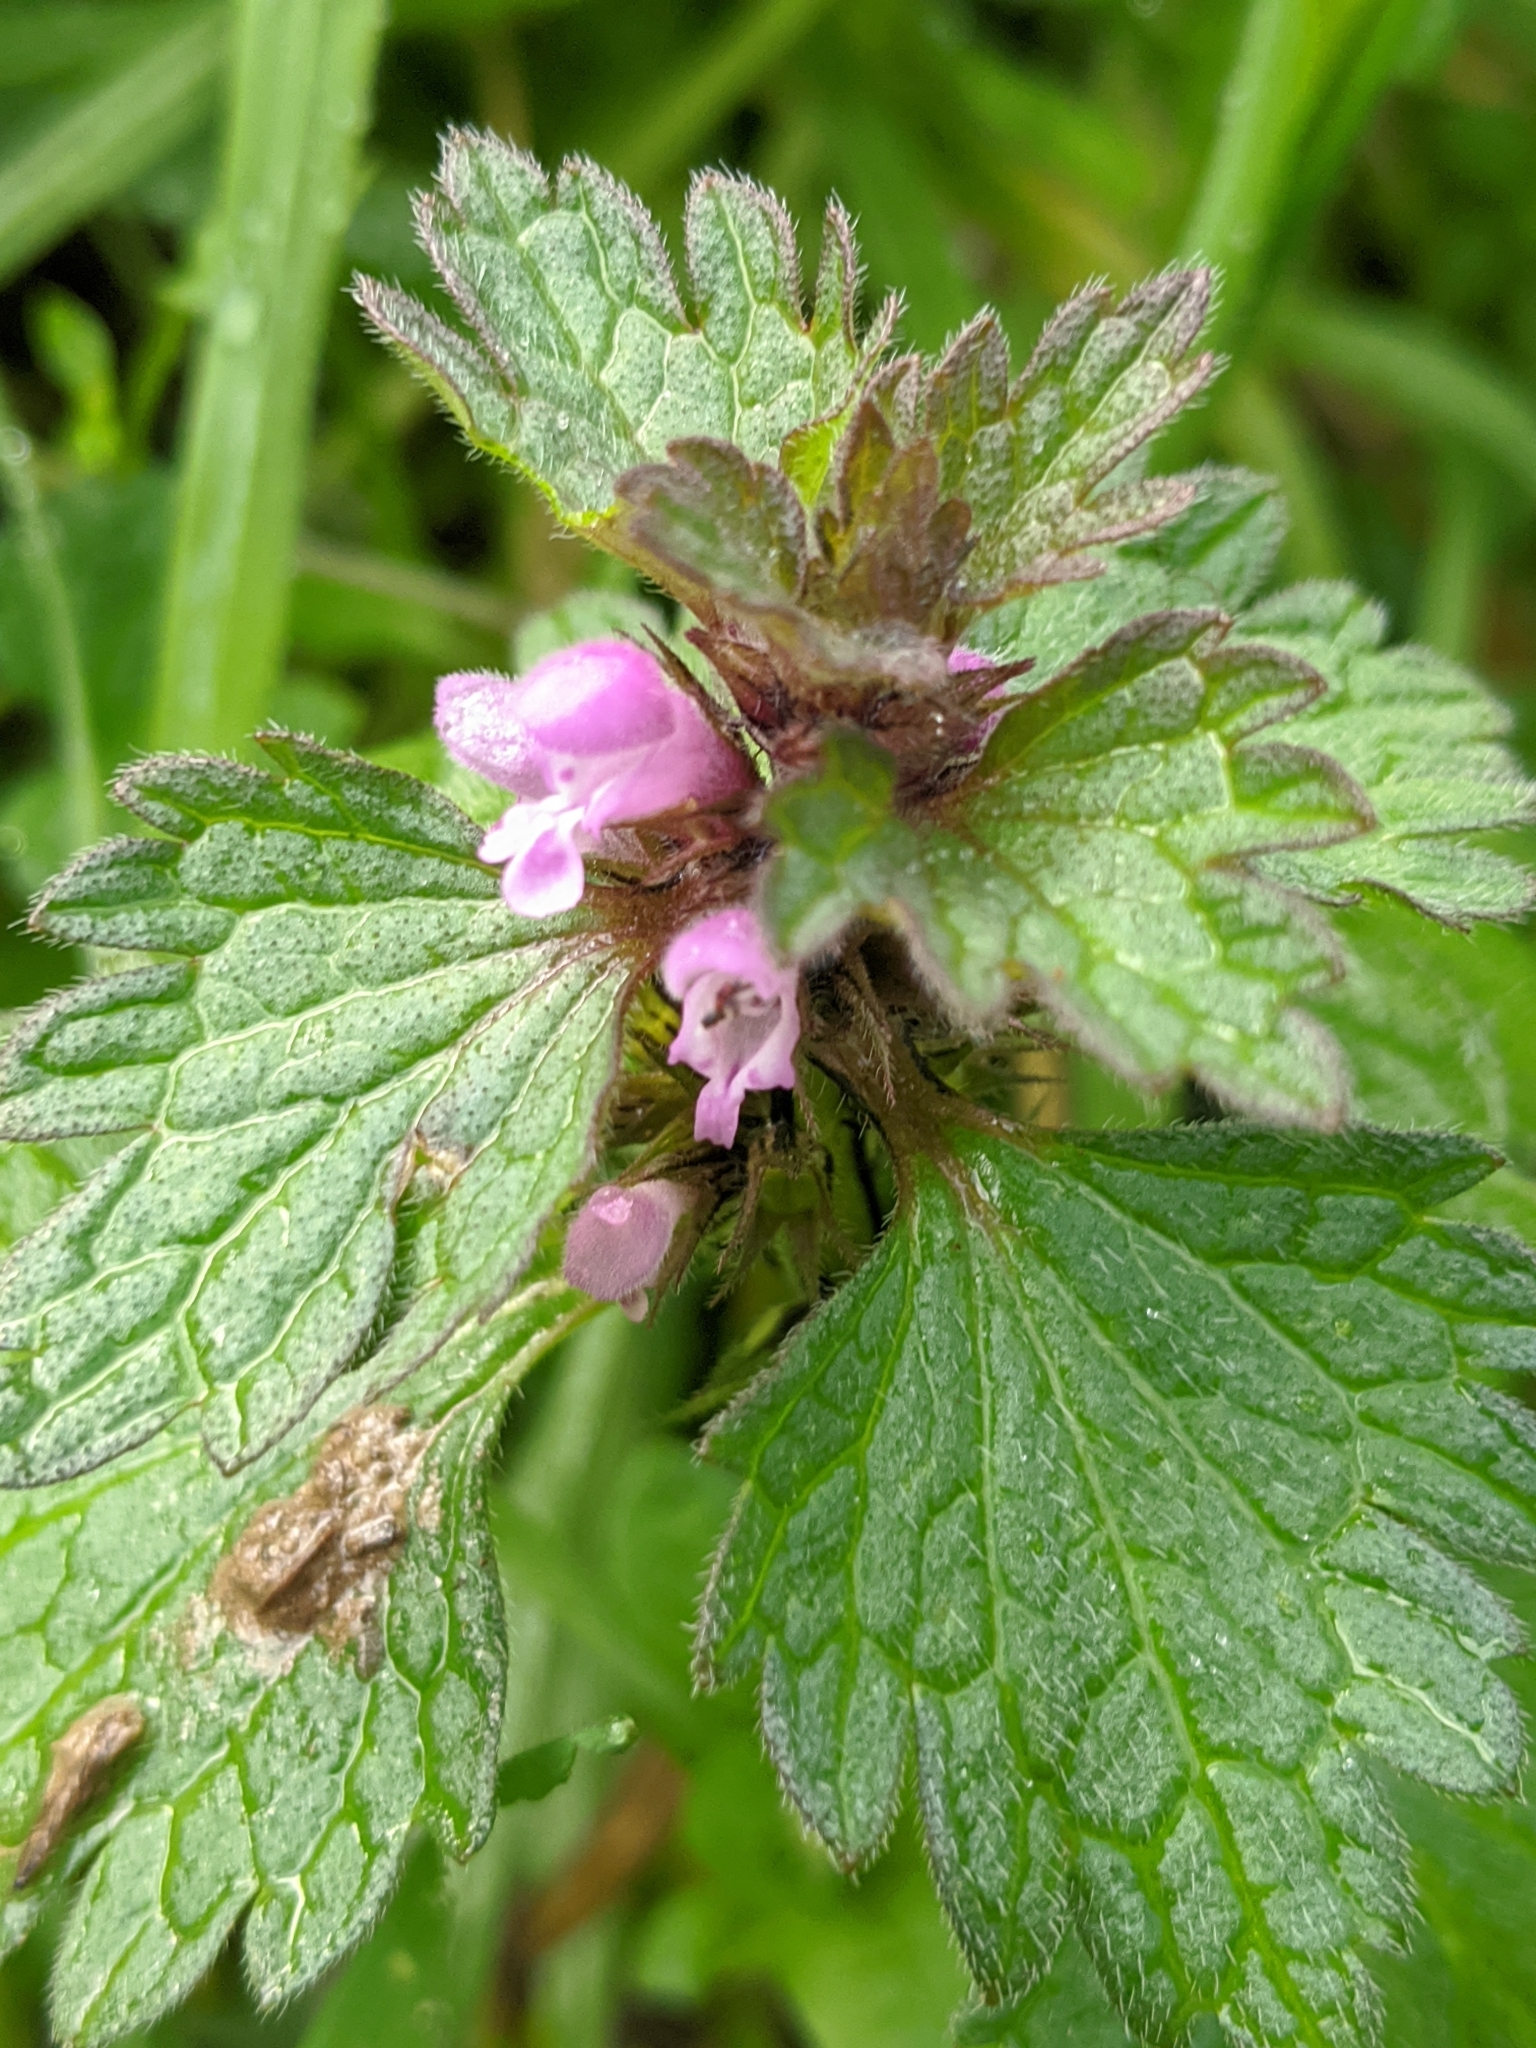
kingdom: Plantae
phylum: Tracheophyta
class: Magnoliopsida
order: Lamiales
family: Lamiaceae
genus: Lamium
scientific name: Lamium hybridum
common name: Cut-leaved dead-nettle
